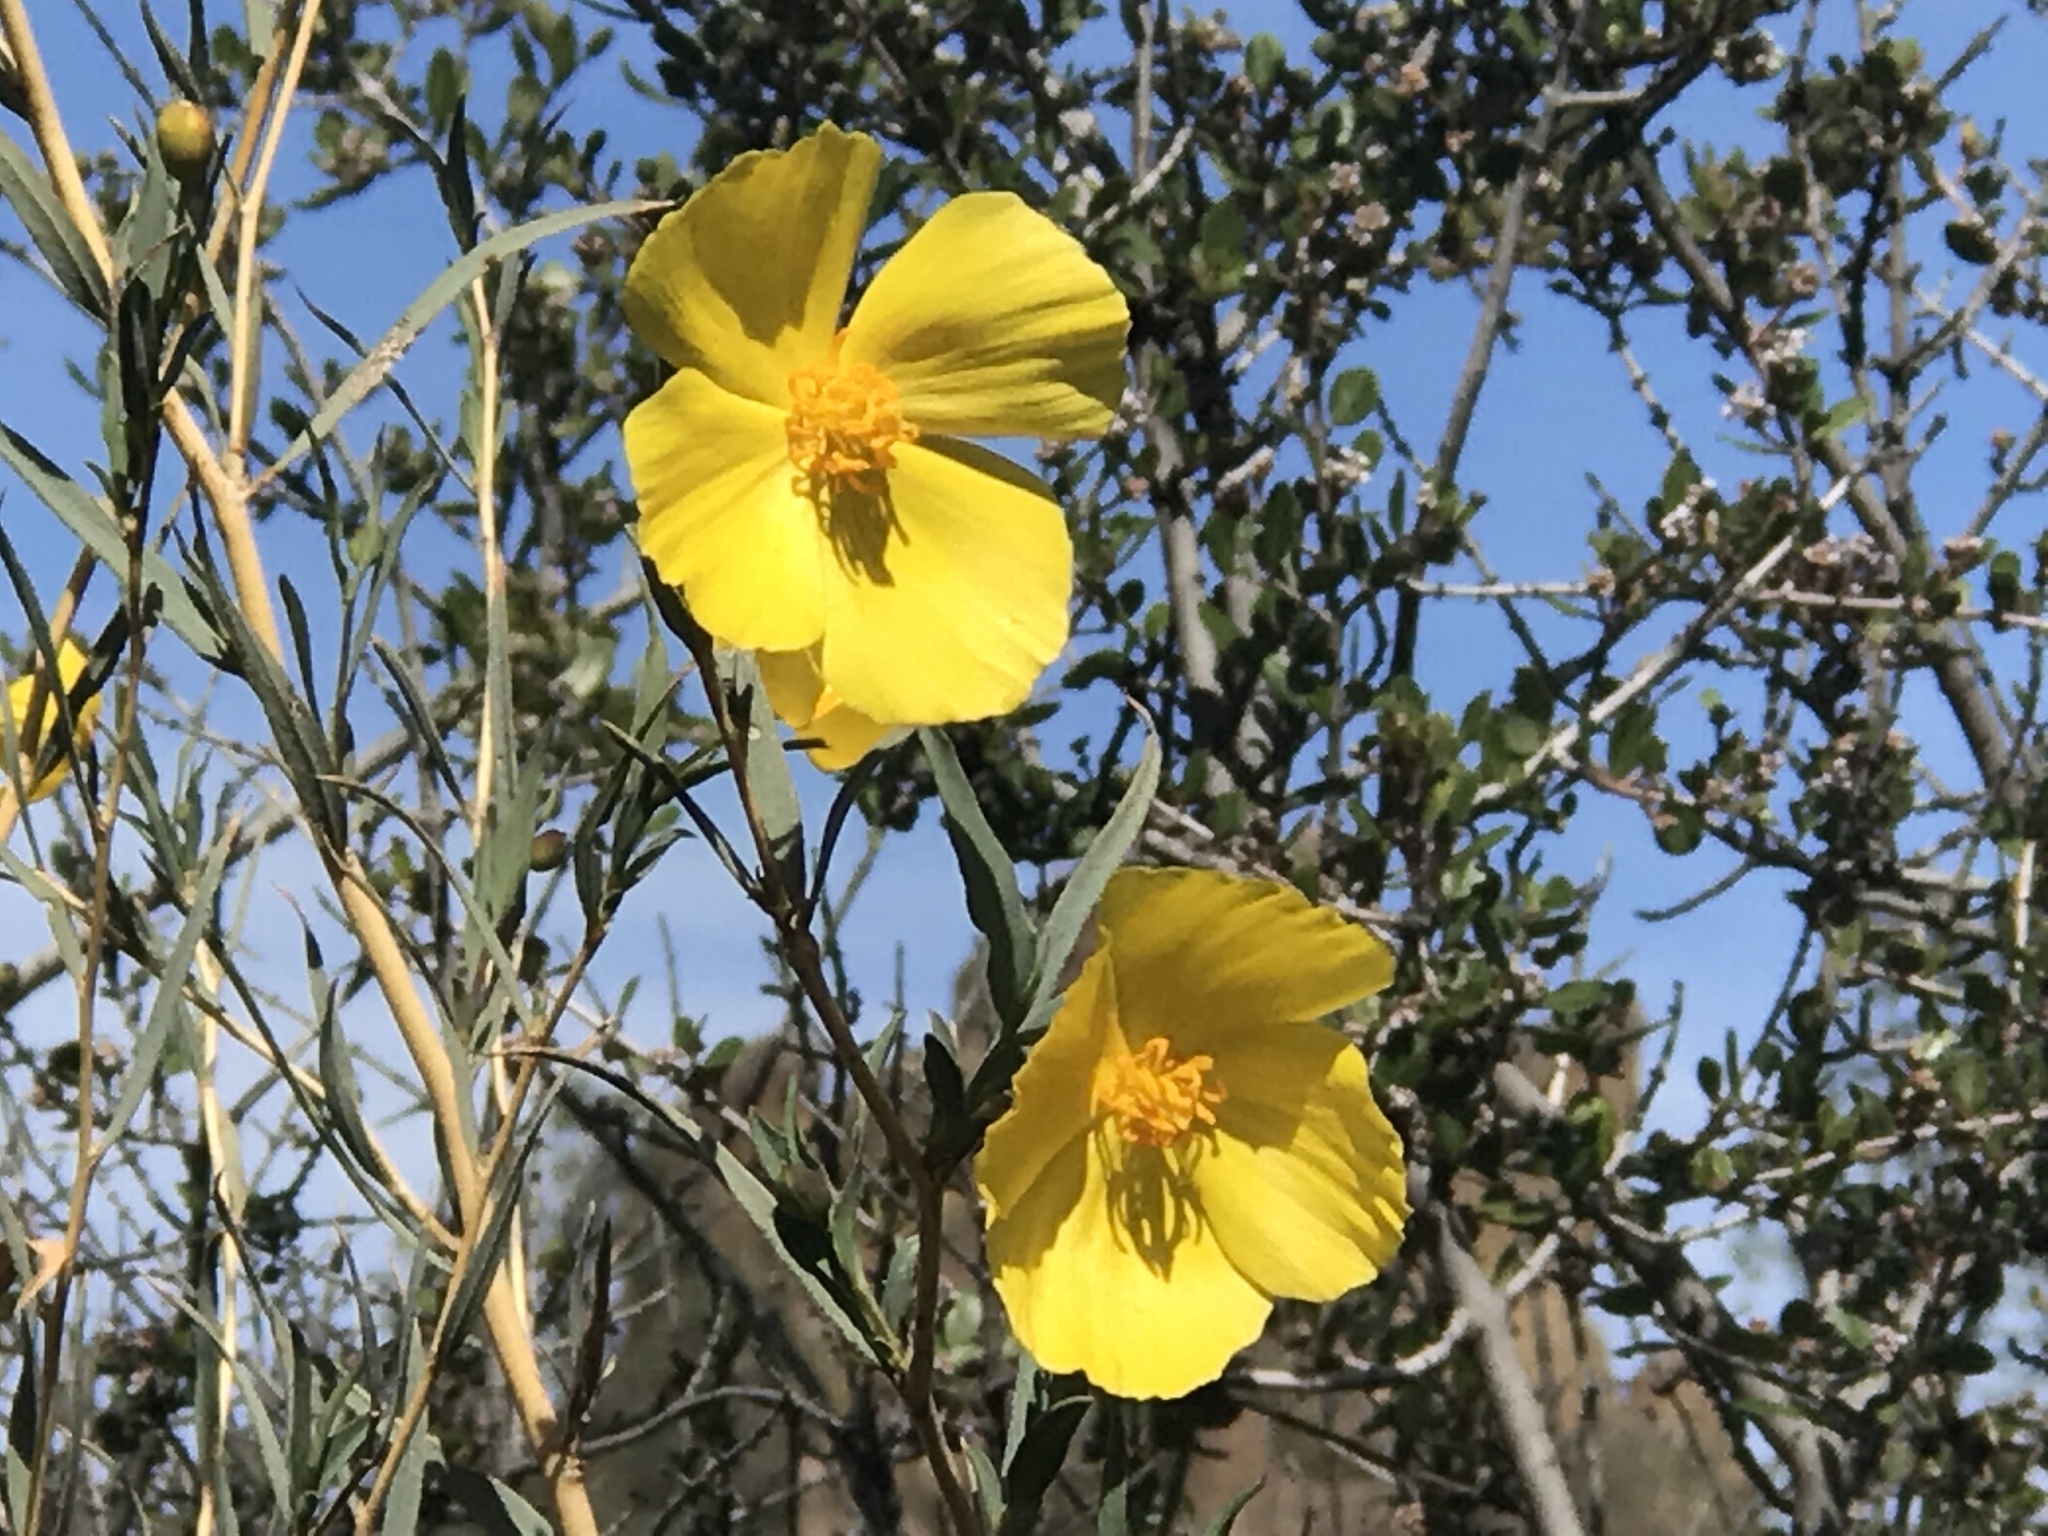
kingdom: Plantae
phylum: Tracheophyta
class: Magnoliopsida
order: Ranunculales
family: Papaveraceae
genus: Dendromecon
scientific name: Dendromecon rigida
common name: Tree poppy
